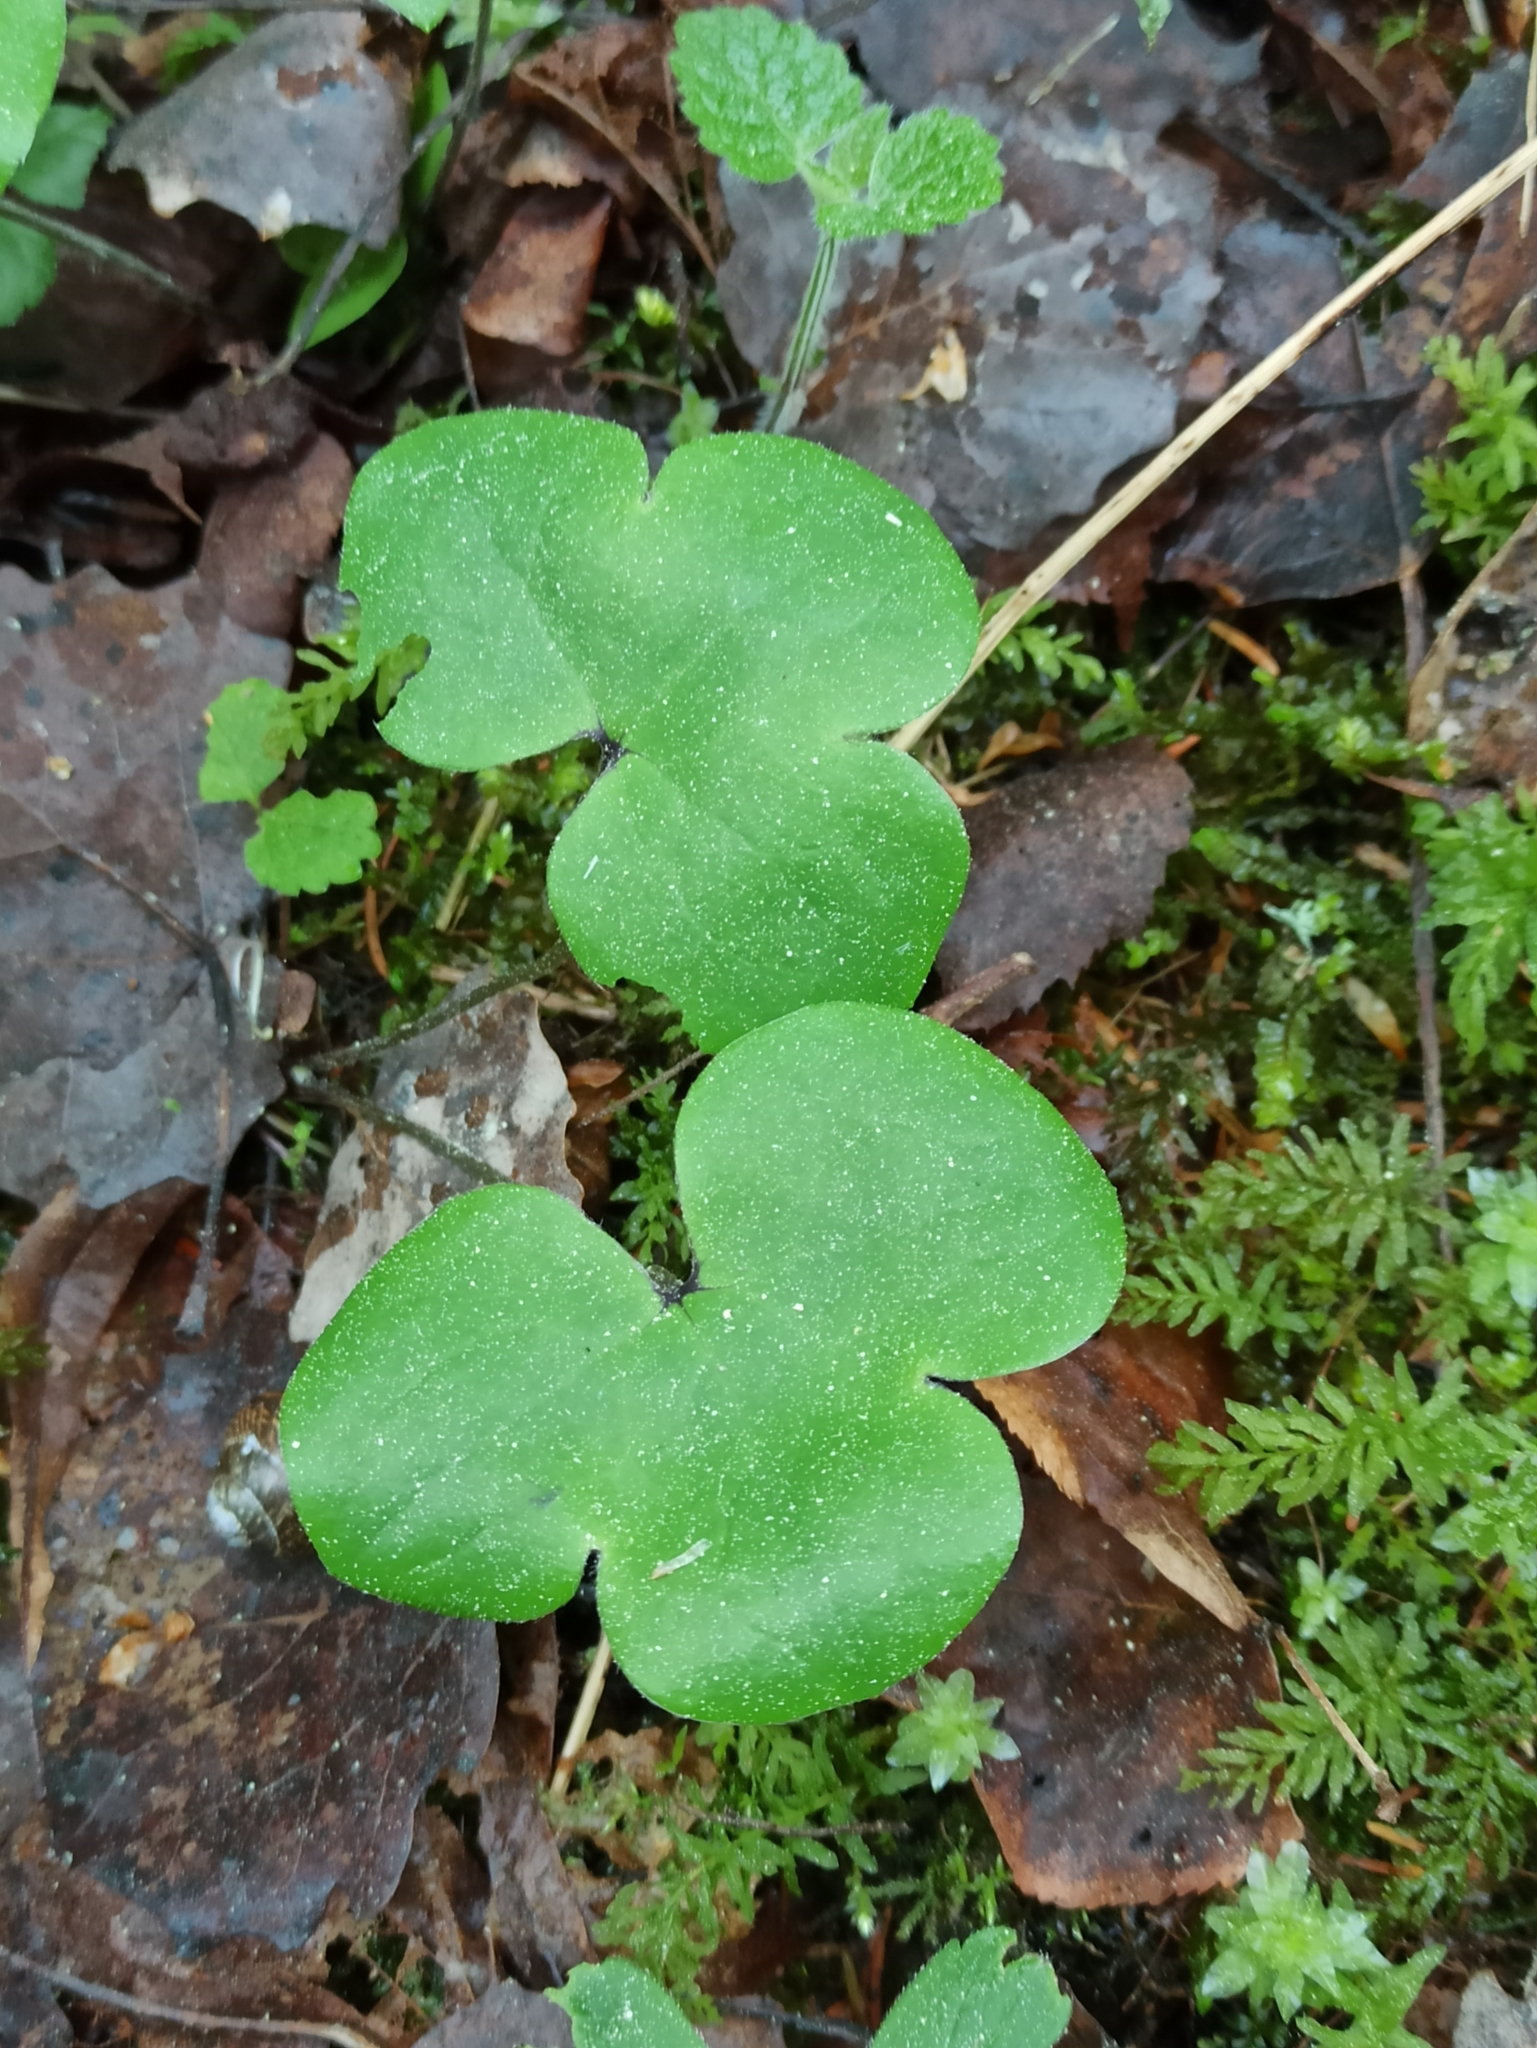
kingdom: Plantae
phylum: Tracheophyta
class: Magnoliopsida
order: Ranunculales
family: Ranunculaceae
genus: Hepatica
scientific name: Hepatica nobilis
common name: Liverleaf
